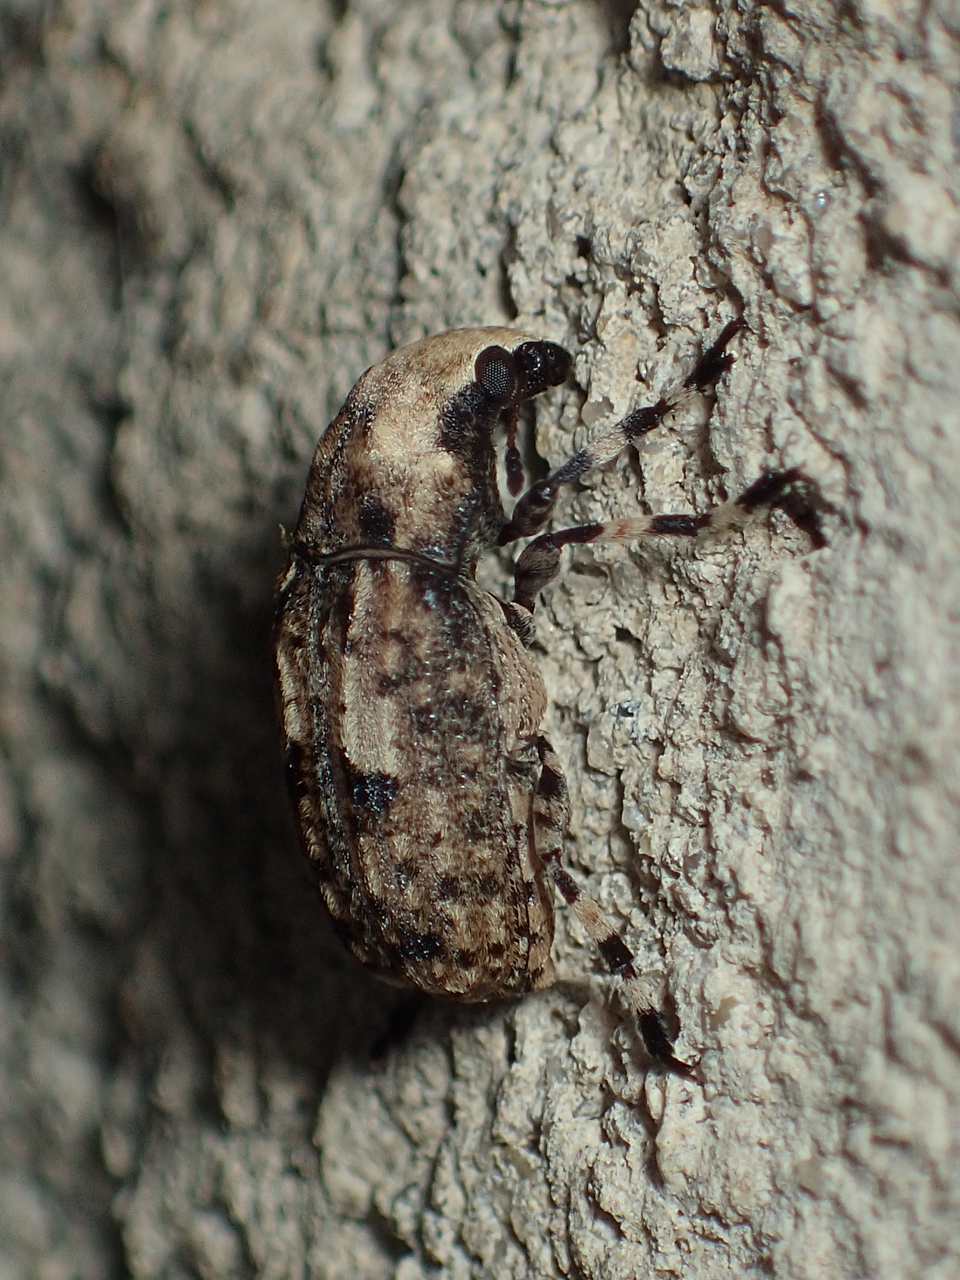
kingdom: Animalia
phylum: Arthropoda
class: Insecta
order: Coleoptera
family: Anthribidae
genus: Euparius
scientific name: Euparius marmoreus
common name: Marbled fungus weevil
